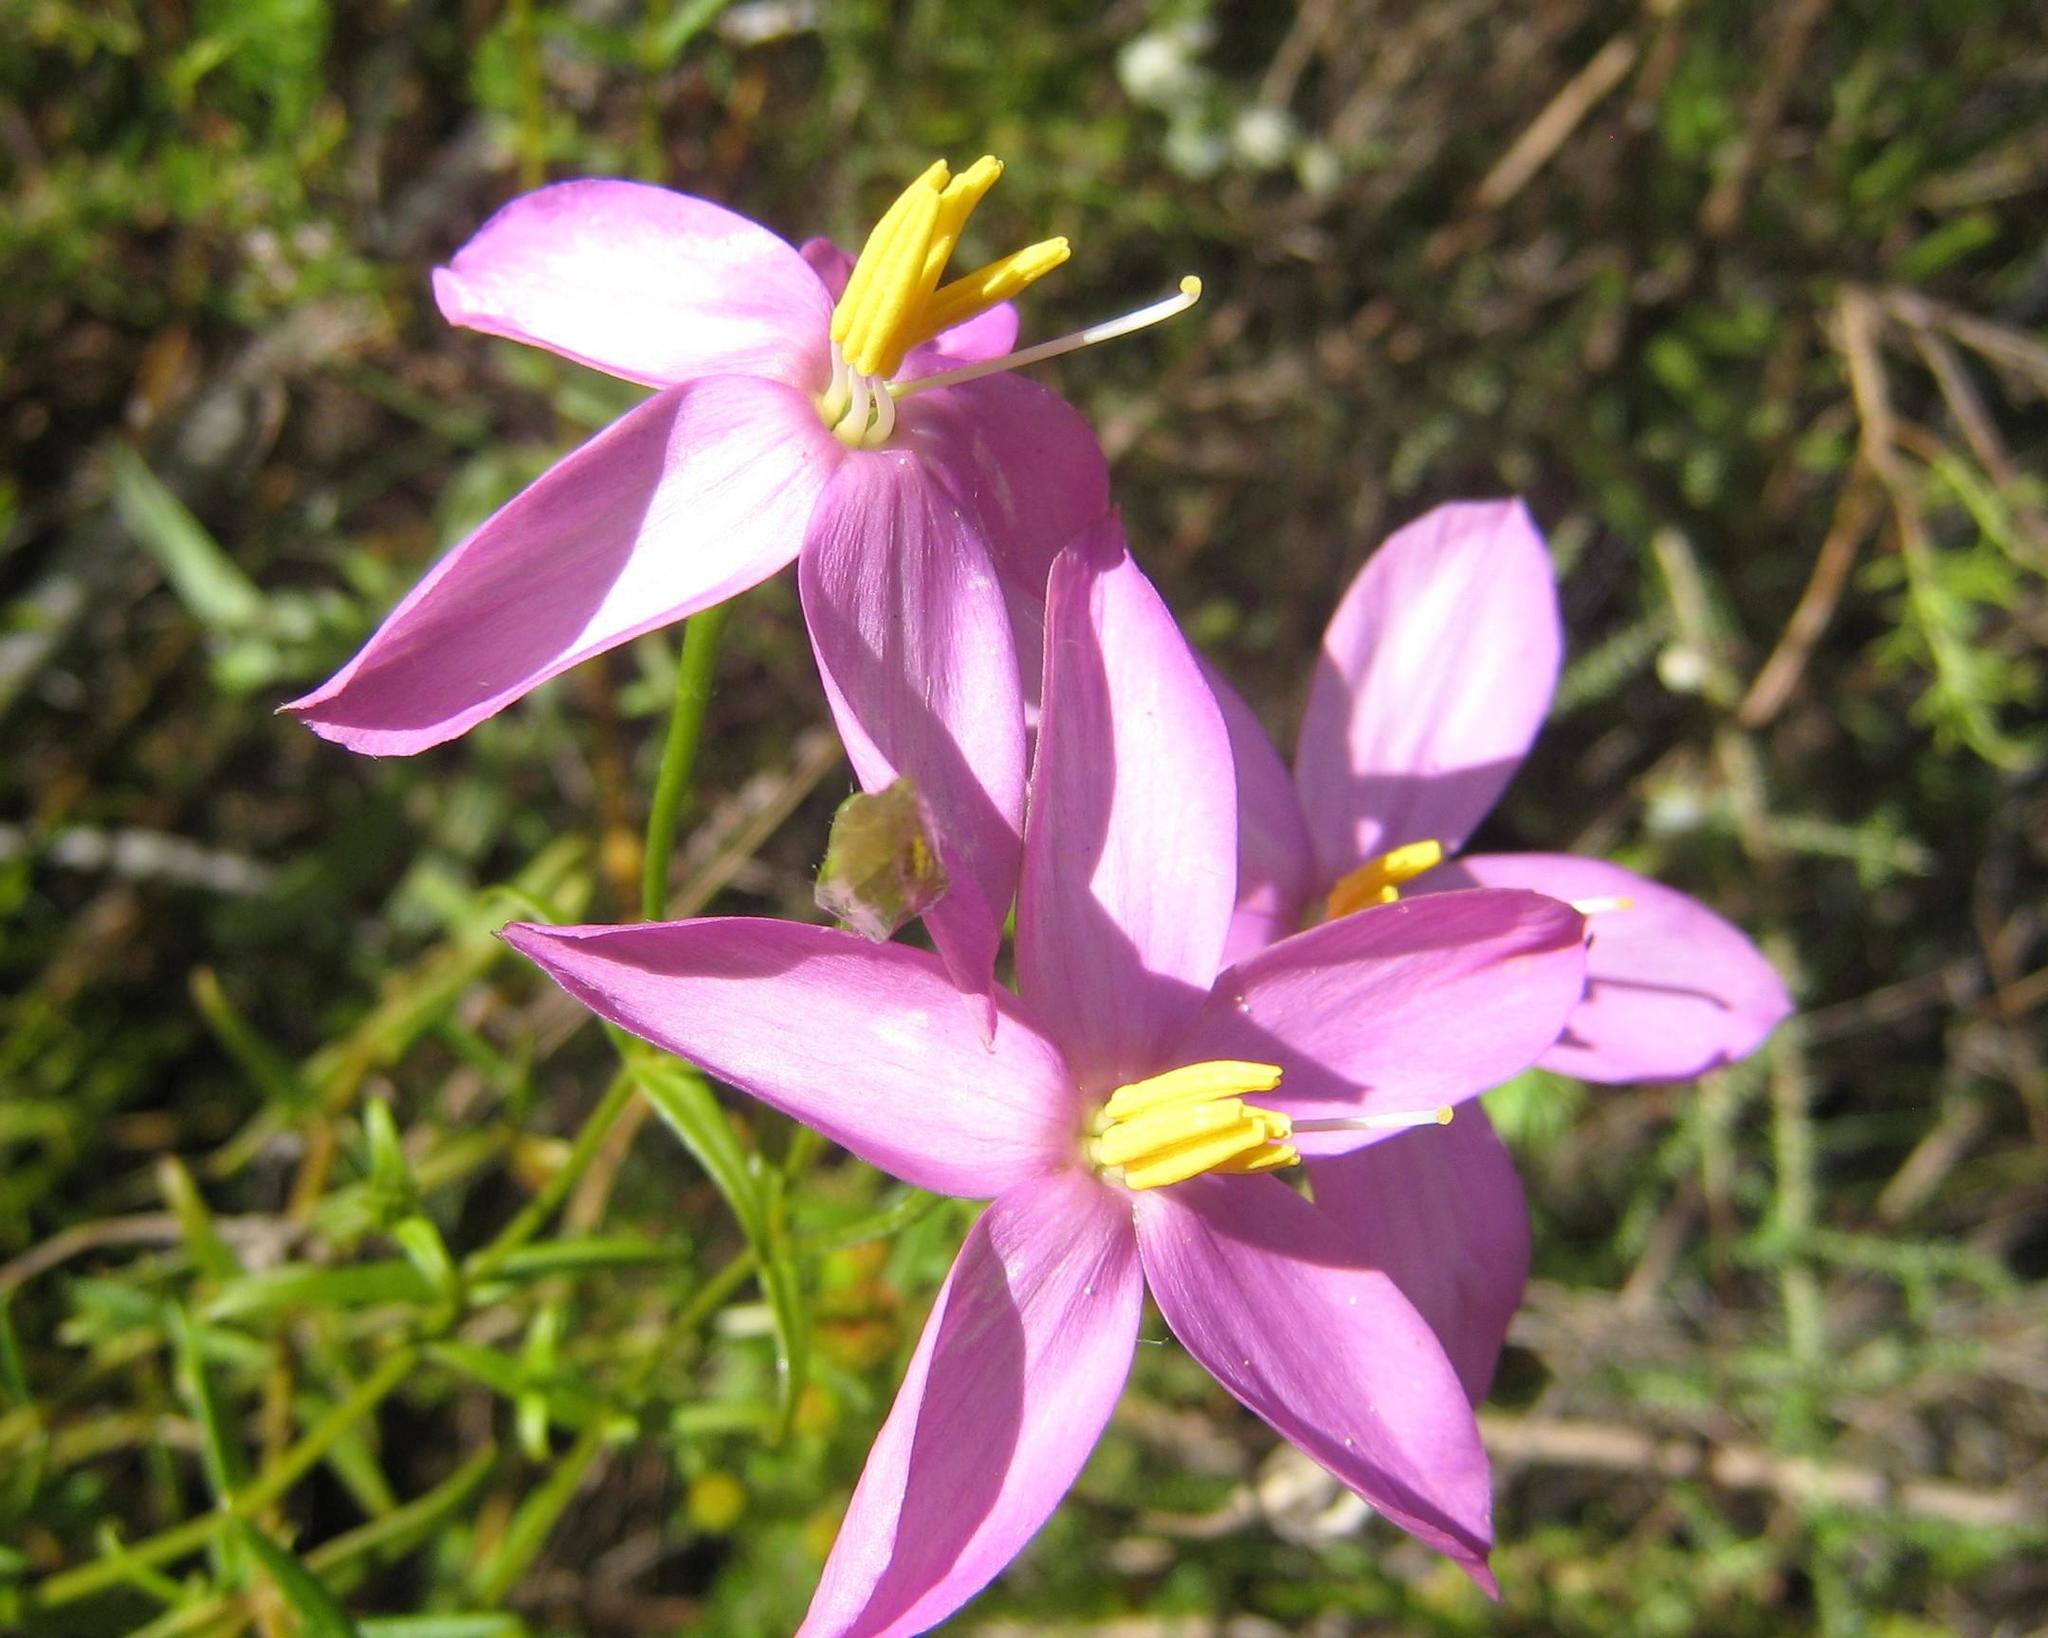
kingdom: Plantae
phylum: Tracheophyta
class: Magnoliopsida
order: Gentianales
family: Gentianaceae
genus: Chironia
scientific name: Chironia melampyrifolia
